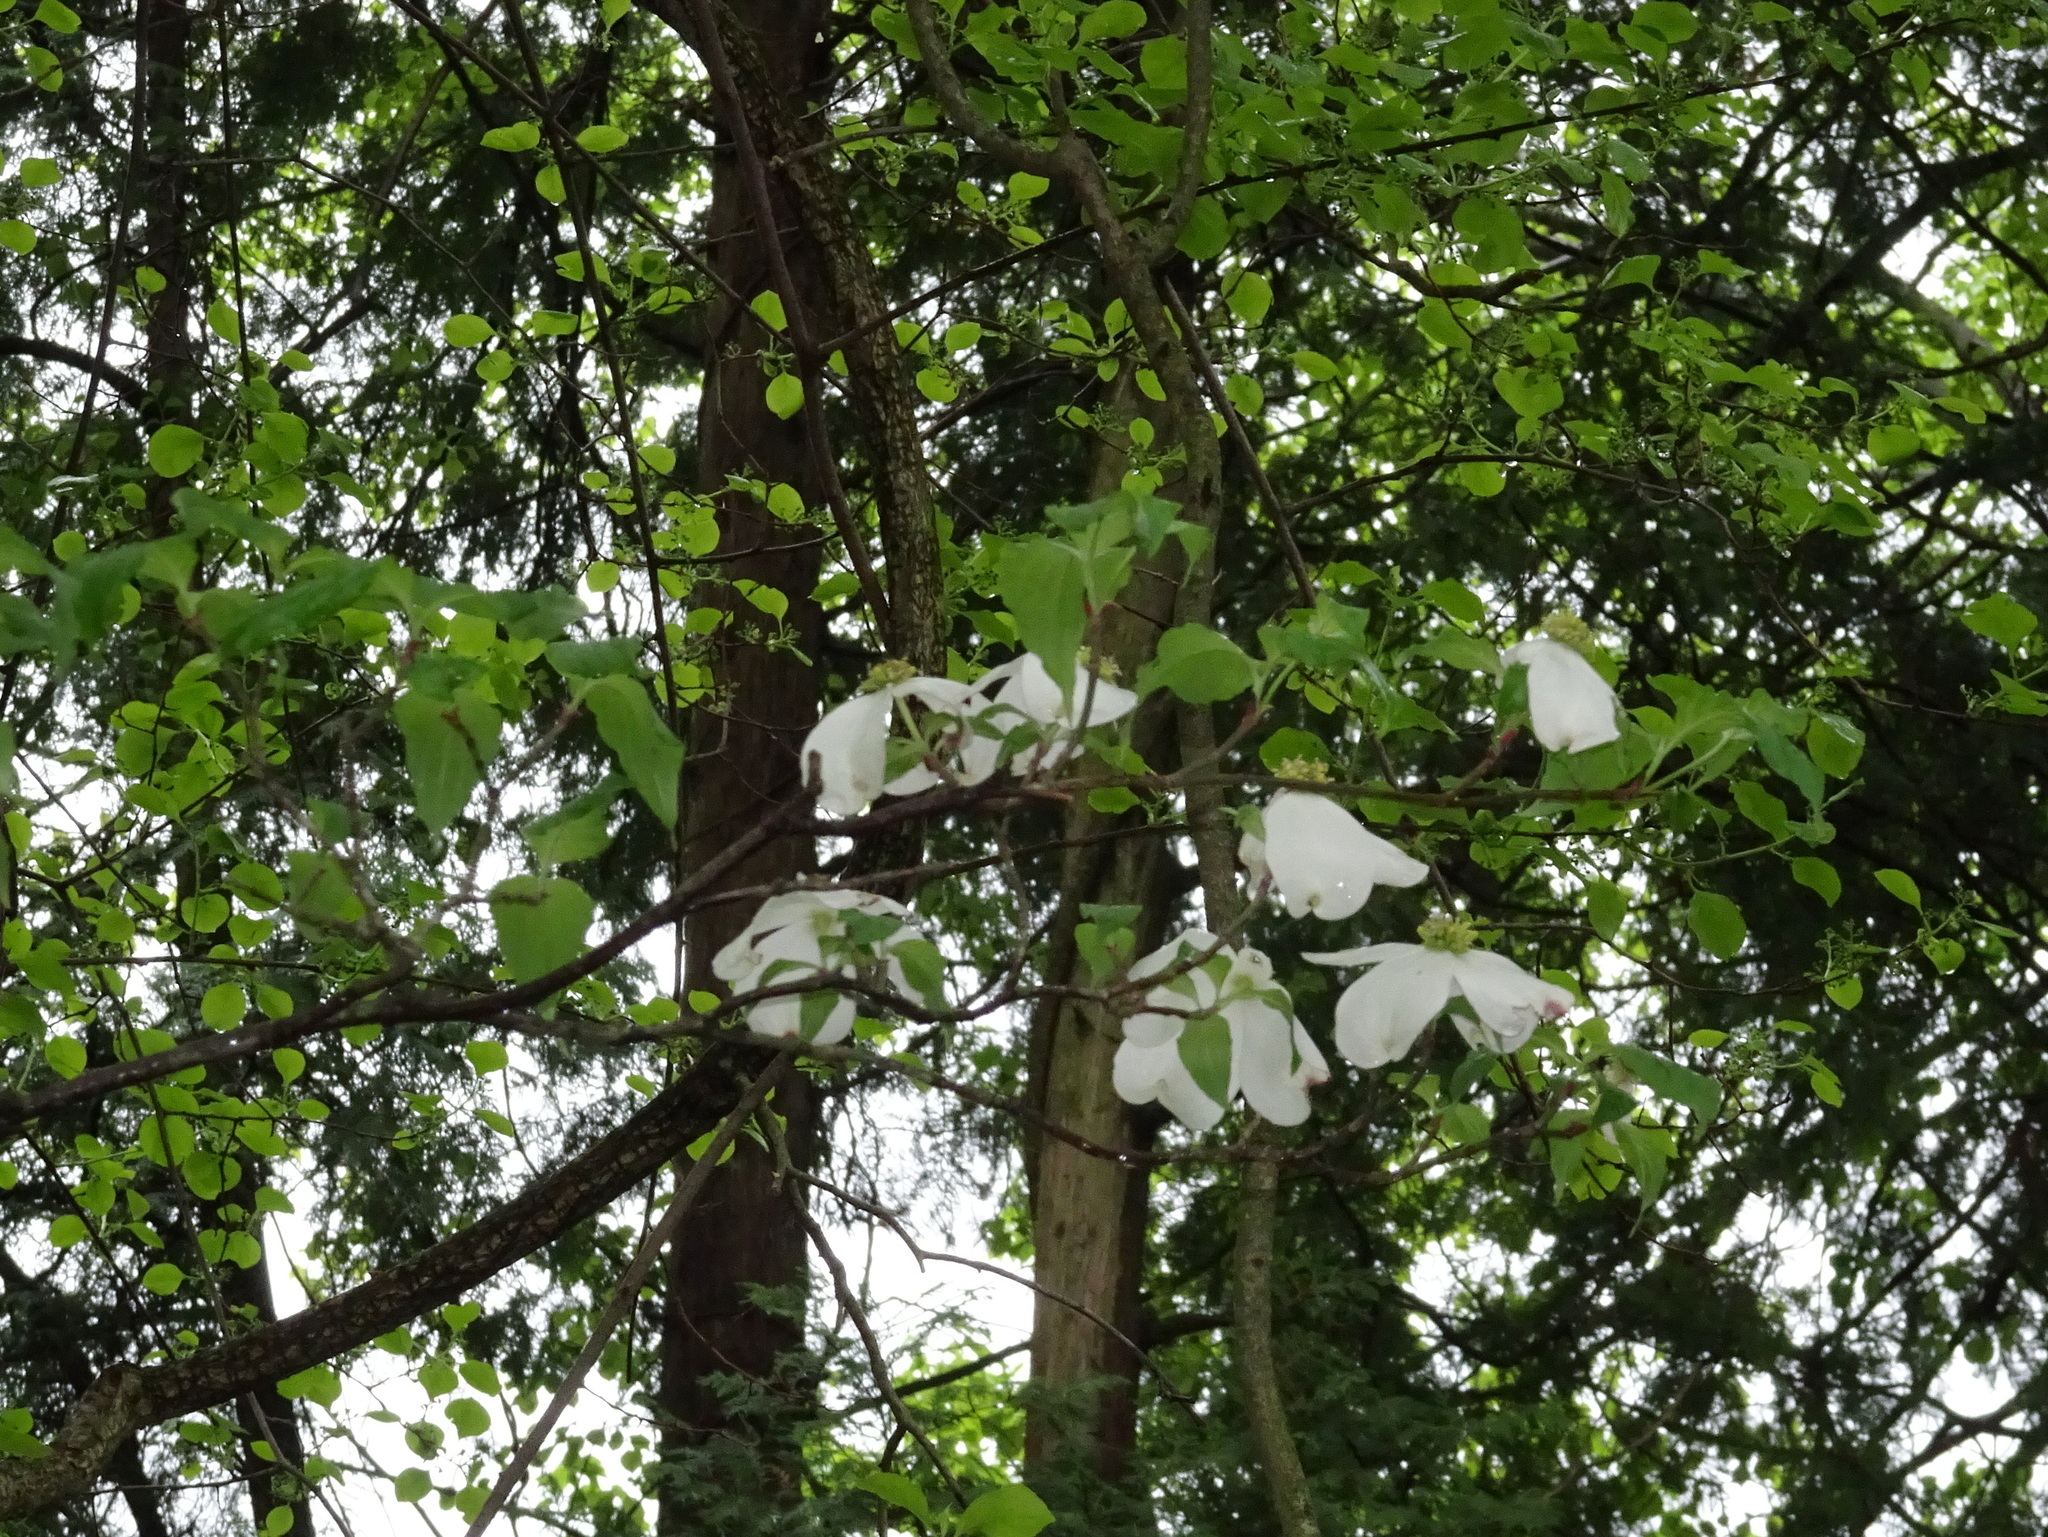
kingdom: Plantae
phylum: Tracheophyta
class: Magnoliopsida
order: Cornales
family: Cornaceae
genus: Cornus
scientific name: Cornus florida
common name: Flowering dogwood
